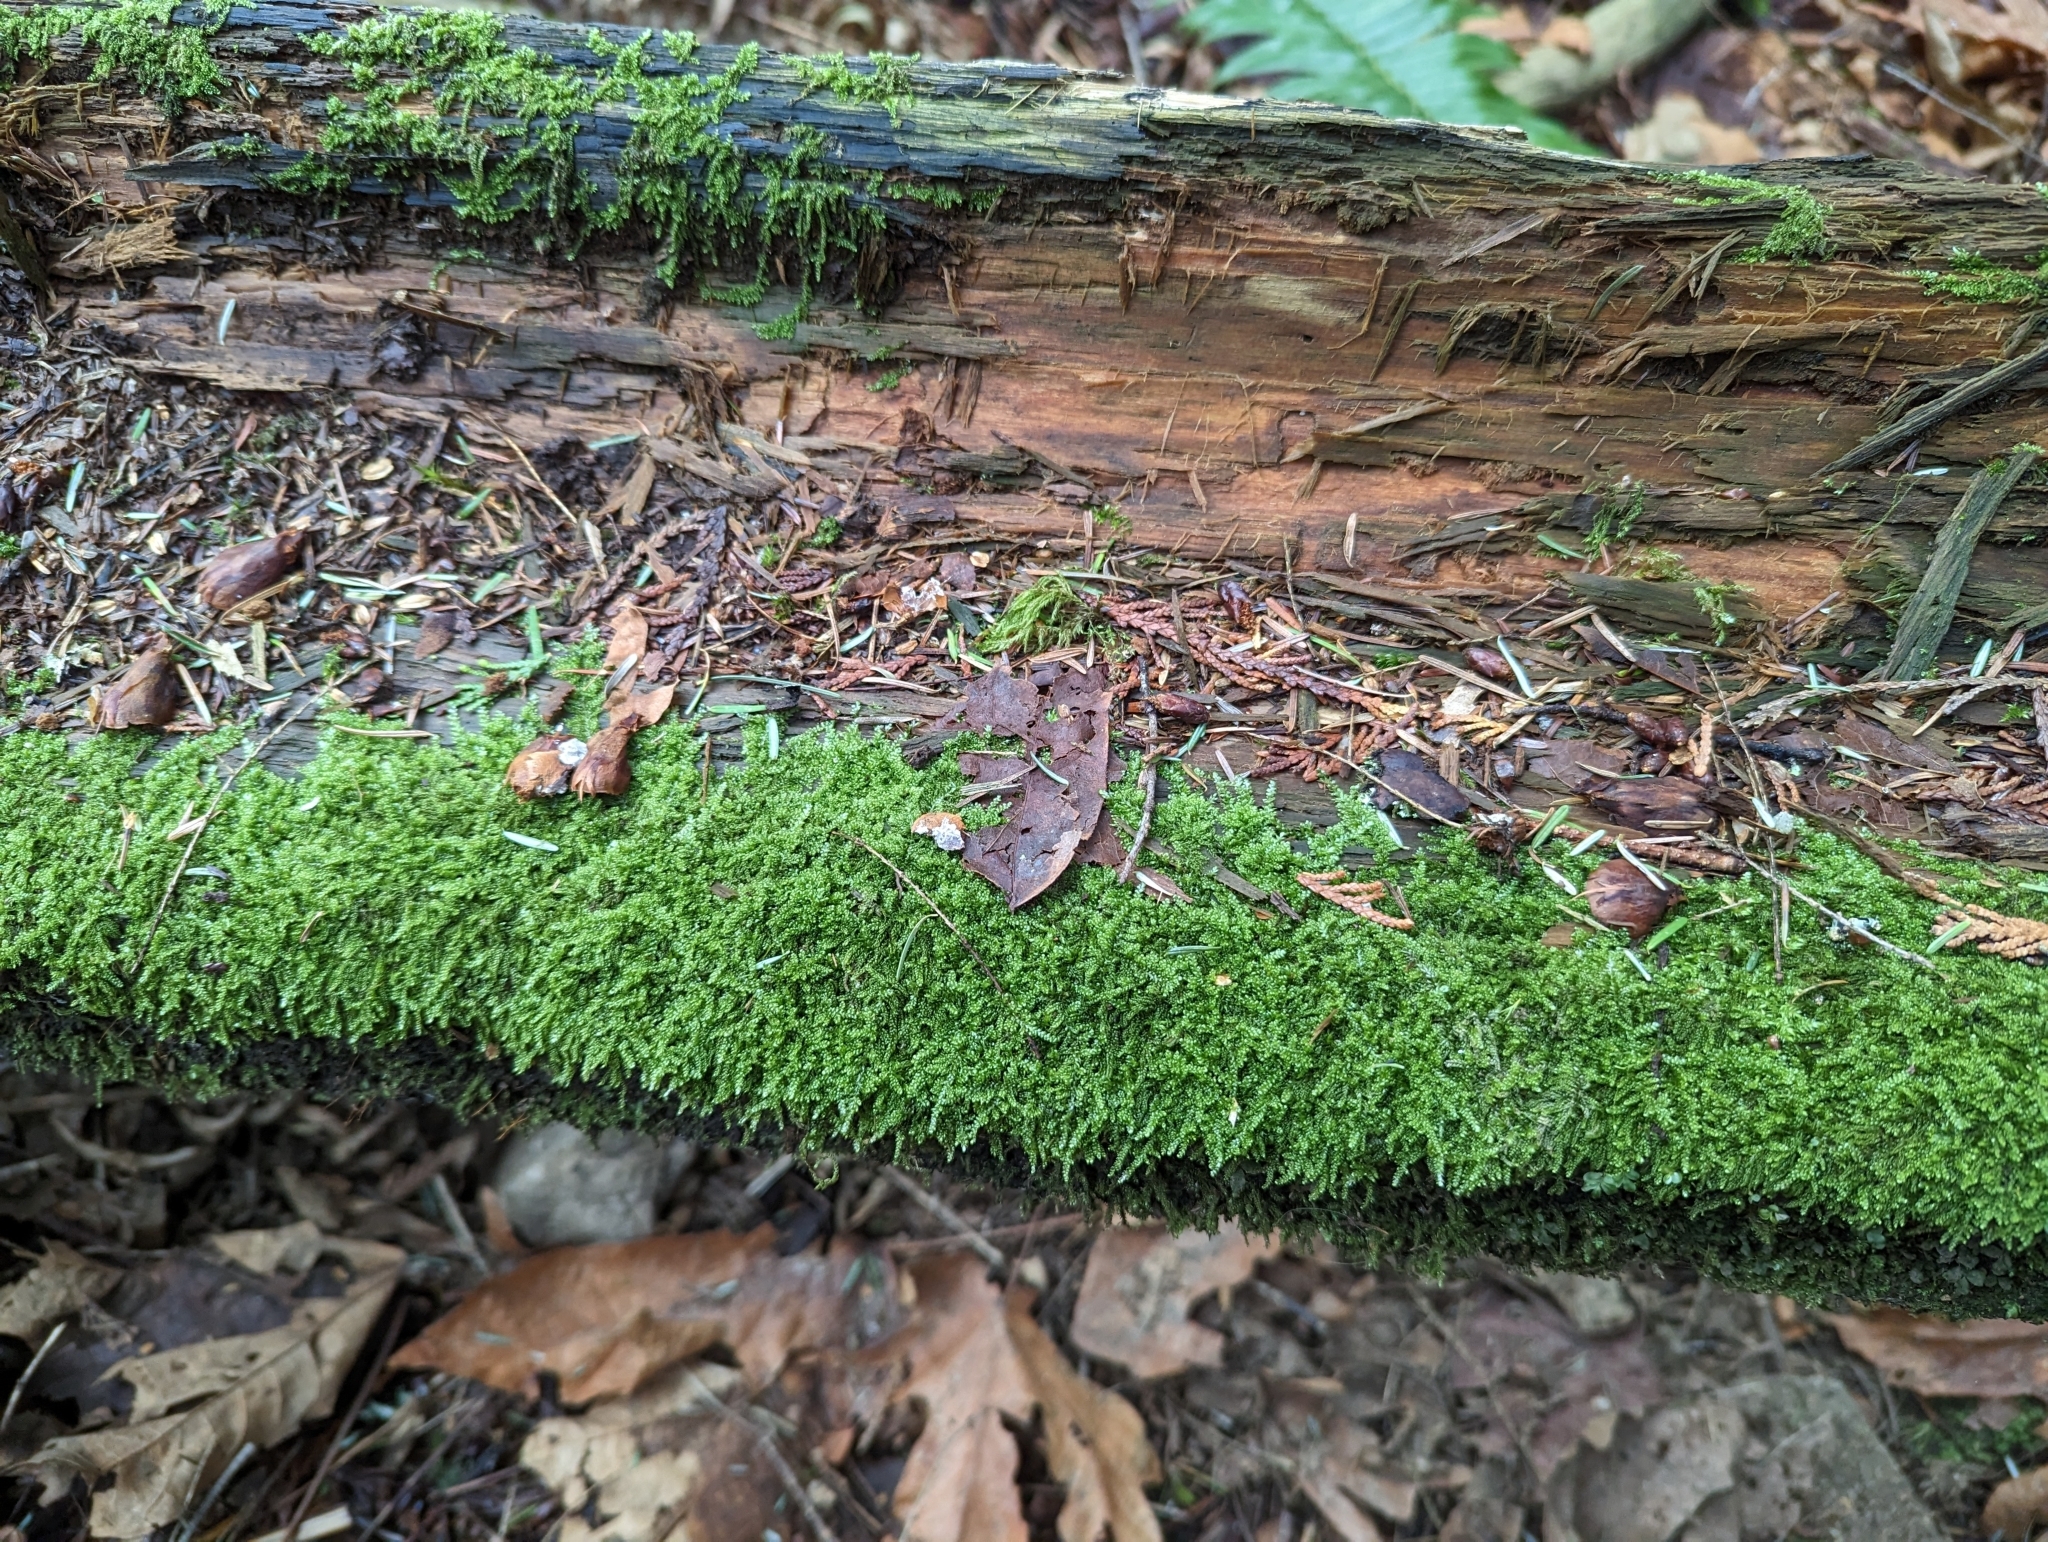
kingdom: Plantae
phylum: Bryophyta
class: Bryopsida
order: Hypnales
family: Pylaisiadelphaceae
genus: Trochophyllohypnum
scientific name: Trochophyllohypnum circinale
